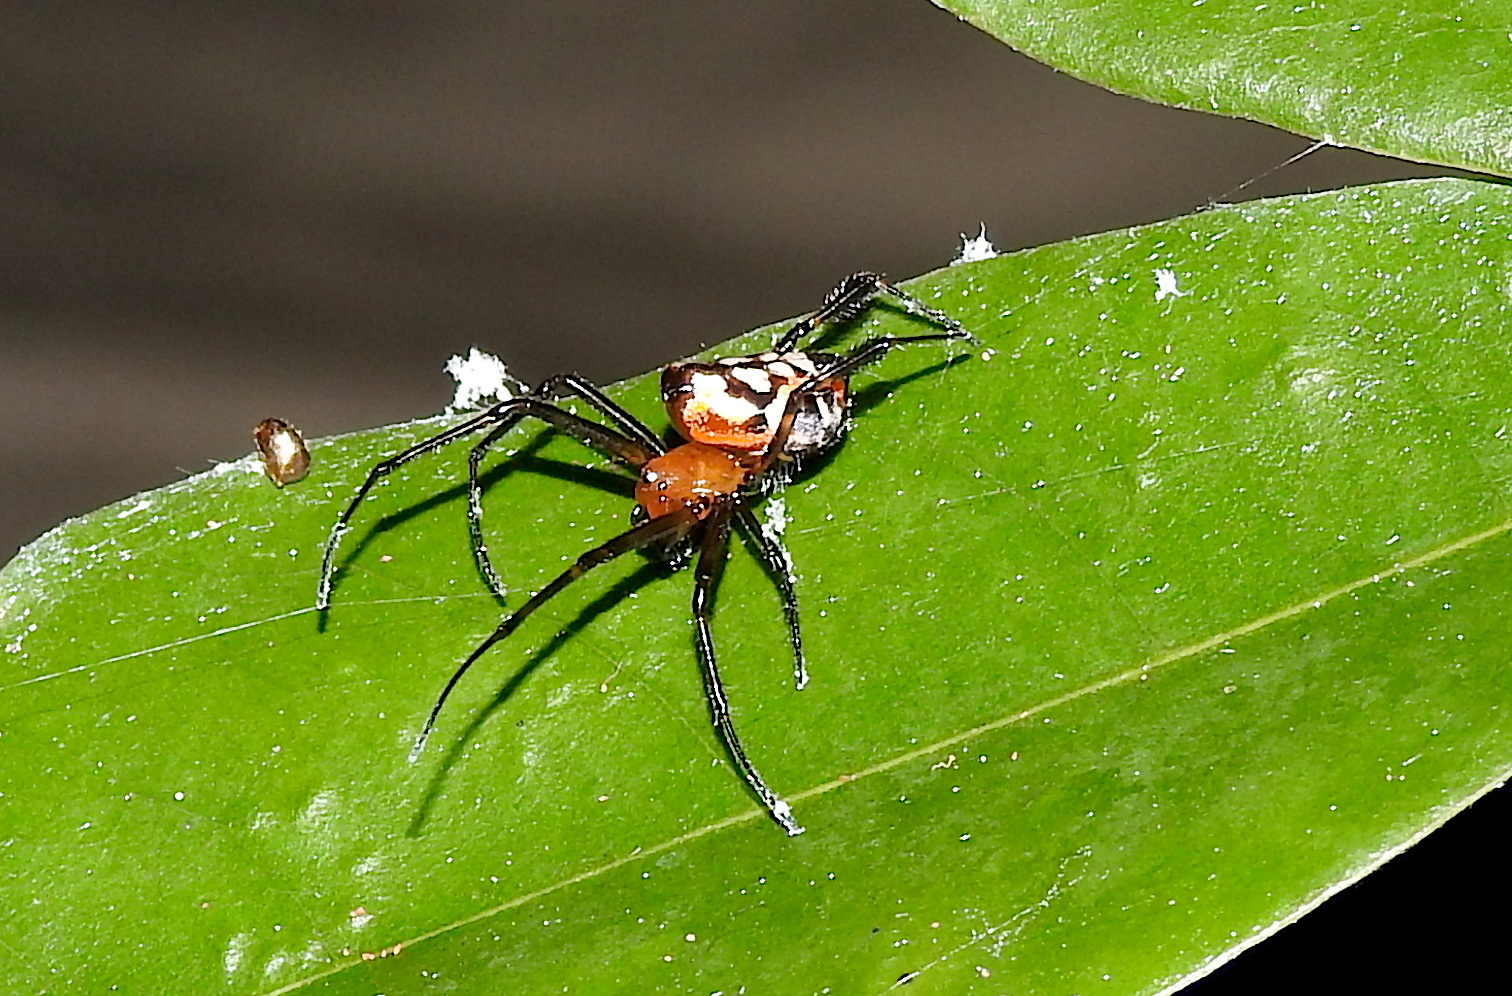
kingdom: Animalia
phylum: Arthropoda
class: Arachnida
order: Araneae
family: Tetragnathidae
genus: Leucauge
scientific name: Leucauge fastigata
